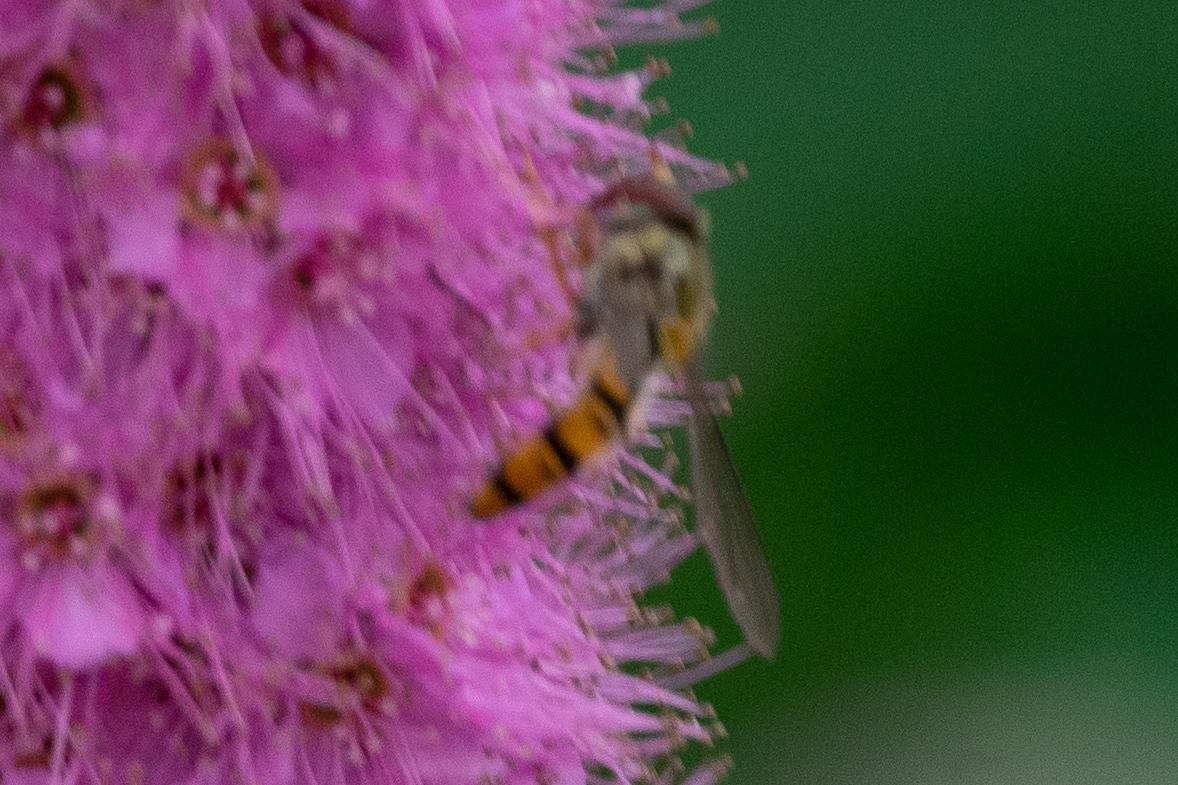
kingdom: Animalia
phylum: Arthropoda
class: Insecta
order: Diptera
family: Syrphidae
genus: Episyrphus
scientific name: Episyrphus balteatus
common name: Marmalade hoverfly
